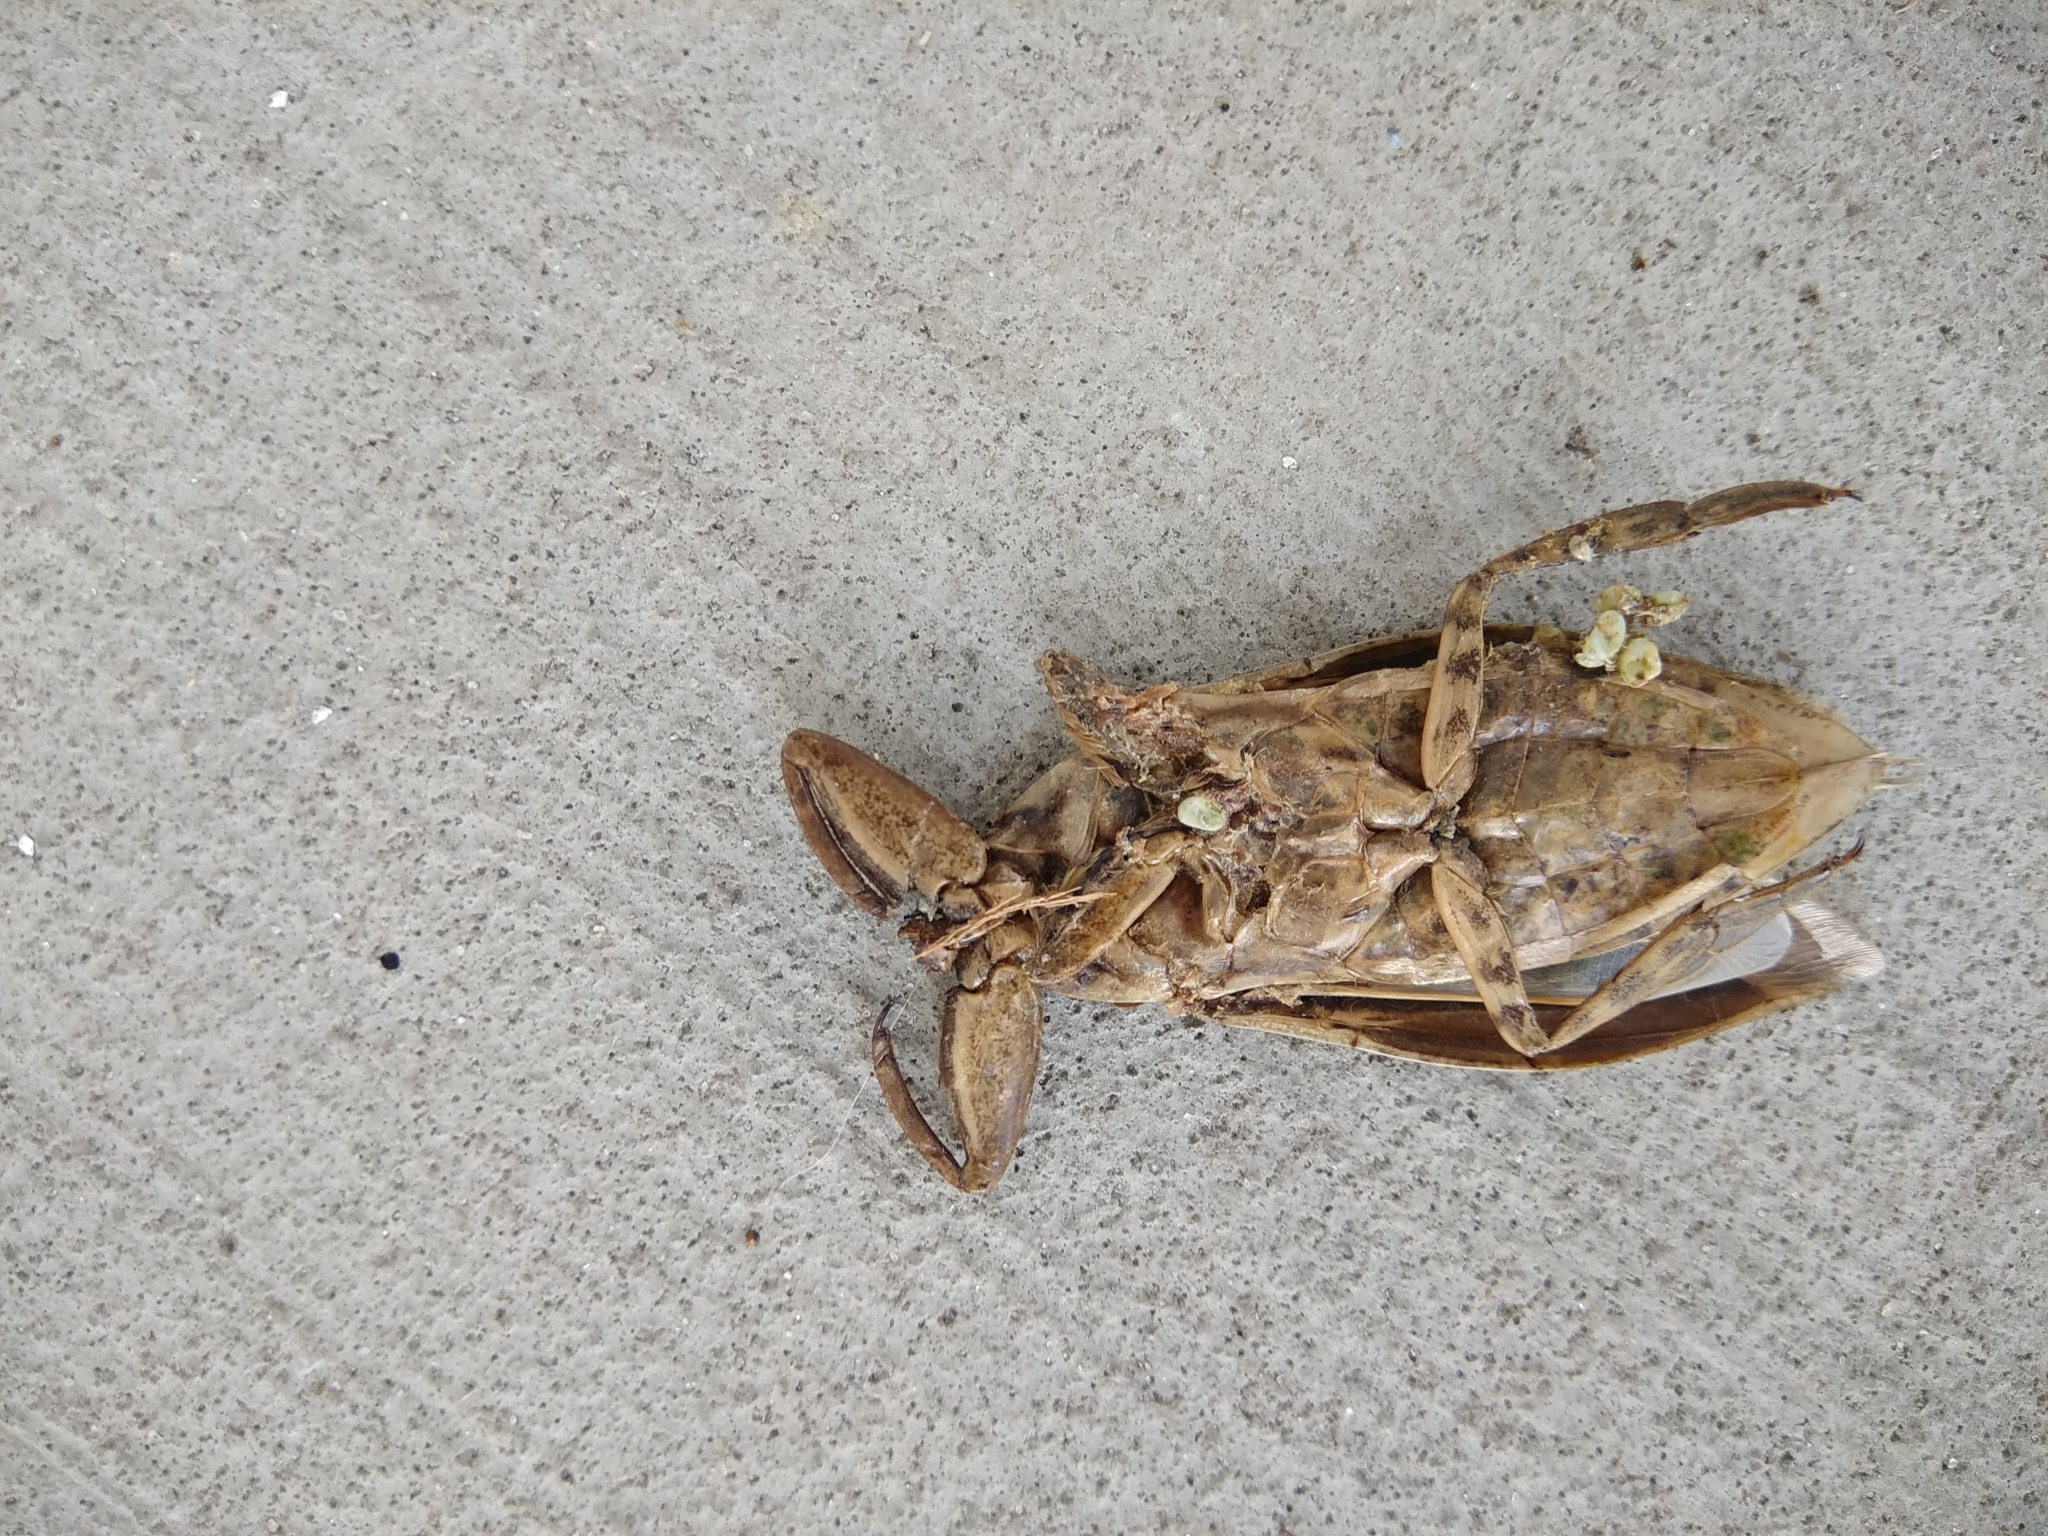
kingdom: Animalia
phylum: Arthropoda
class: Insecta
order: Hemiptera
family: Belostomatidae
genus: Lethocerus
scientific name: Lethocerus uhleri
